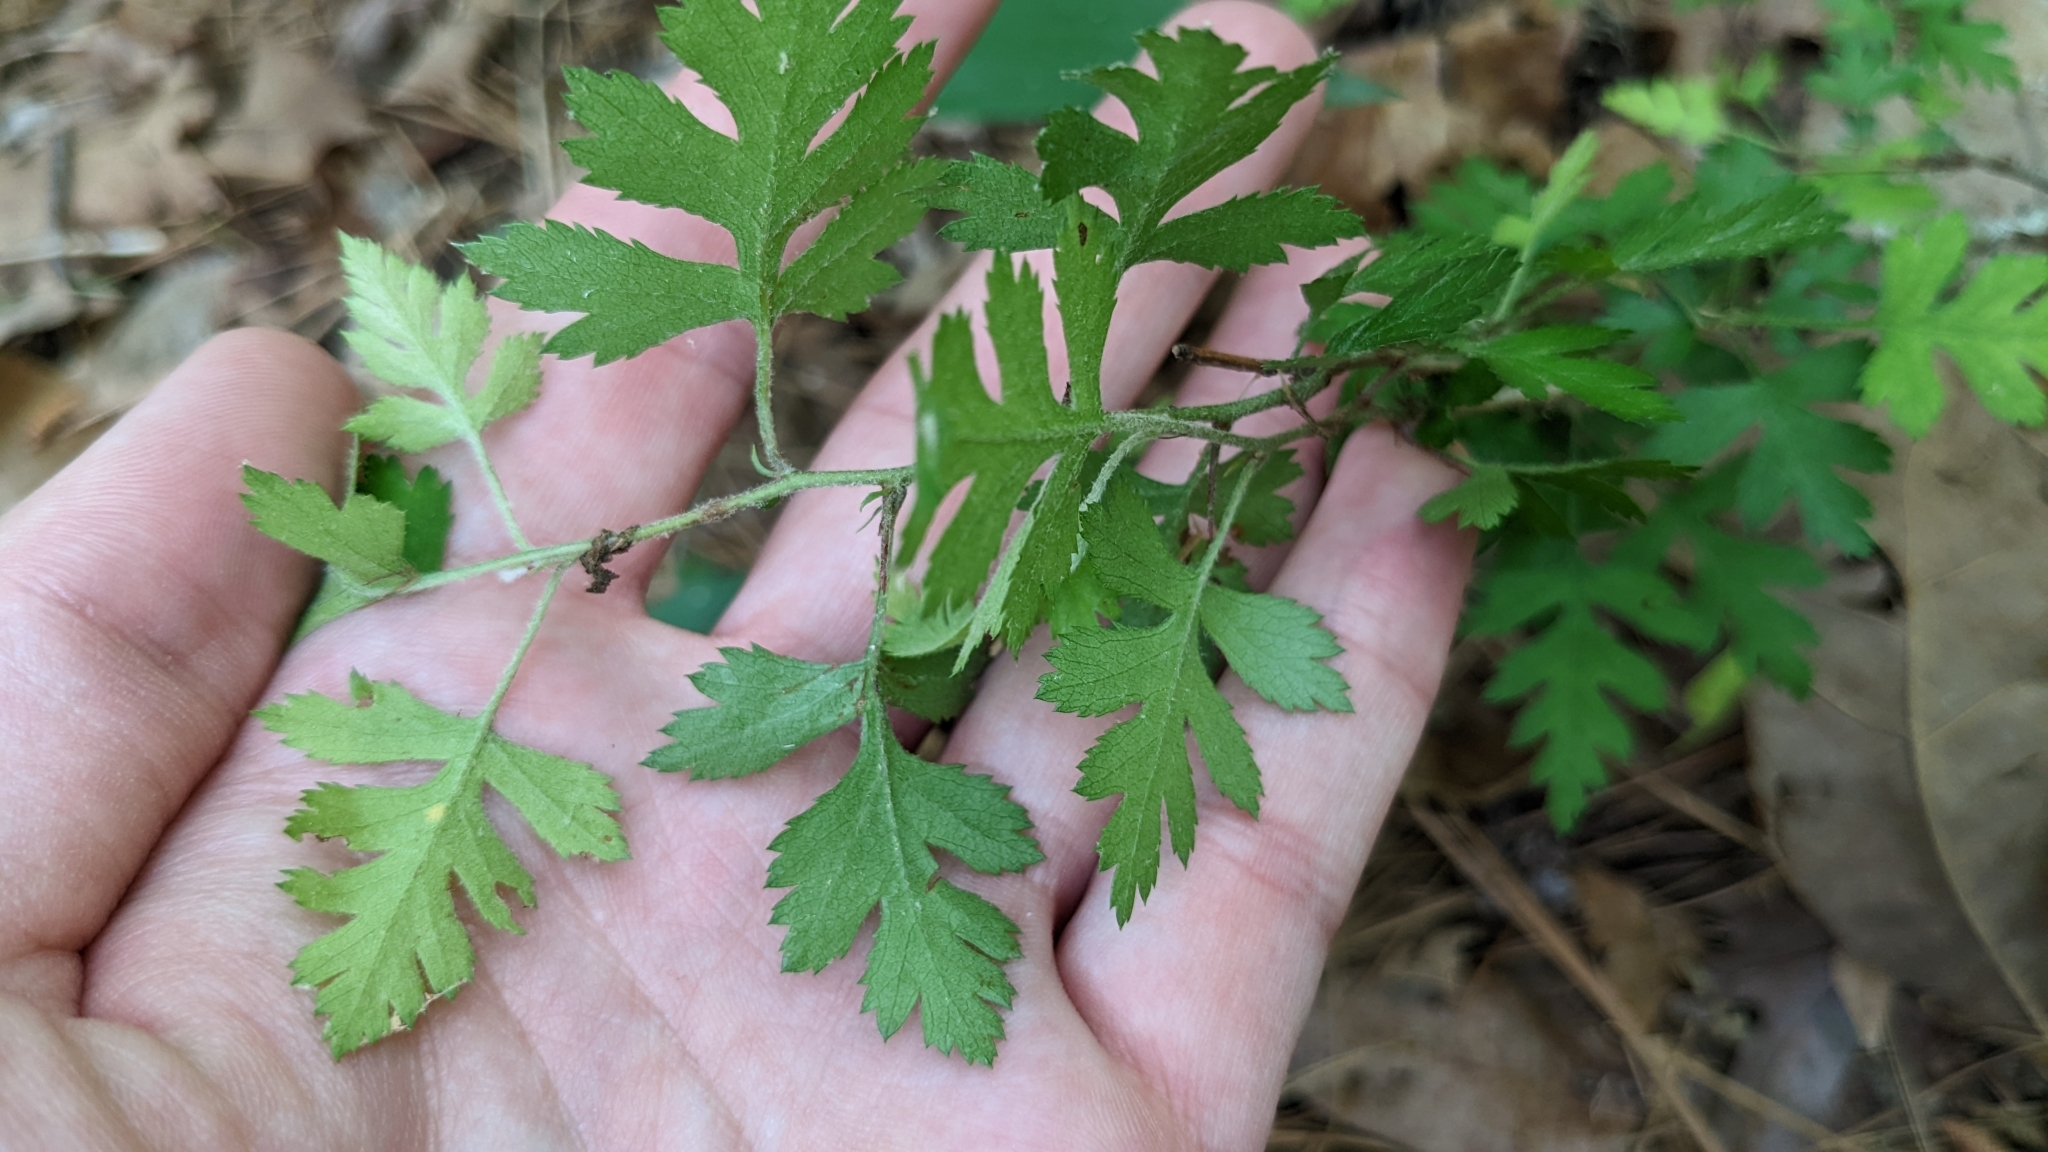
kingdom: Plantae
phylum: Tracheophyta
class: Magnoliopsida
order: Rosales
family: Rosaceae
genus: Crataegus
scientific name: Crataegus marshallii
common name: Parsley-hawthorn
